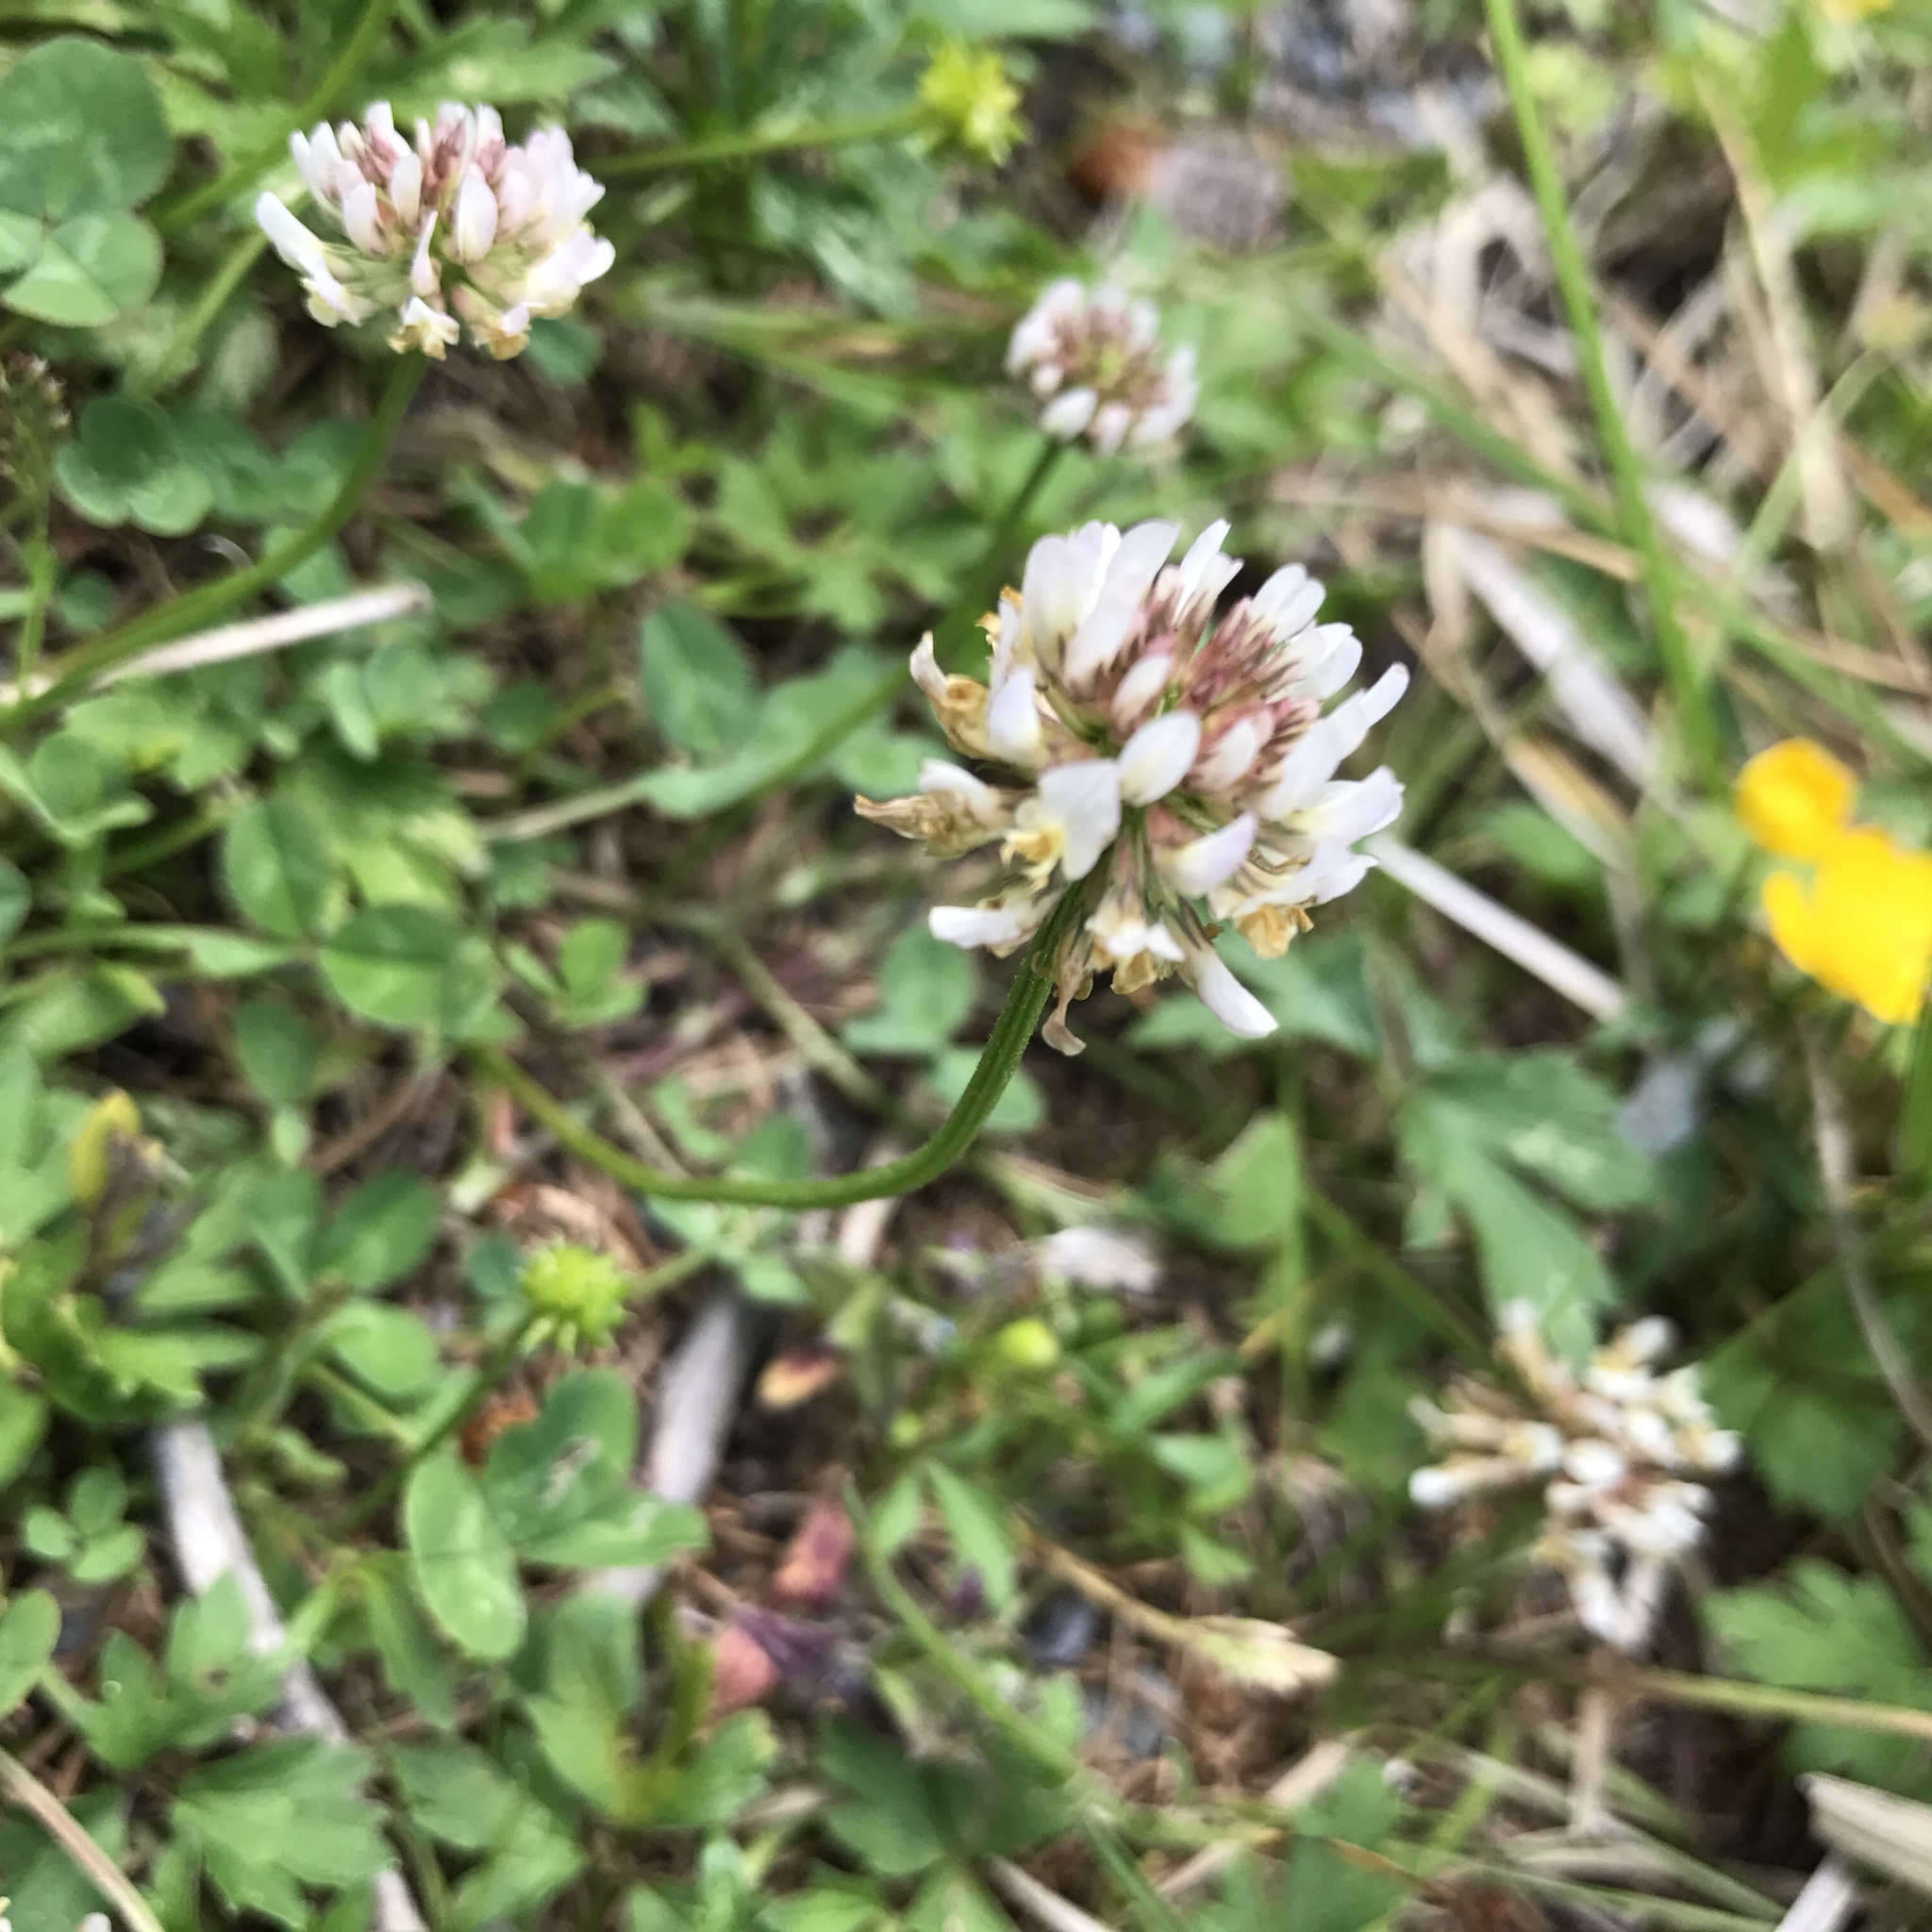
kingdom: Plantae
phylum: Tracheophyta
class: Magnoliopsida
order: Fabales
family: Fabaceae
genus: Trifolium
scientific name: Trifolium repens
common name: White clover
